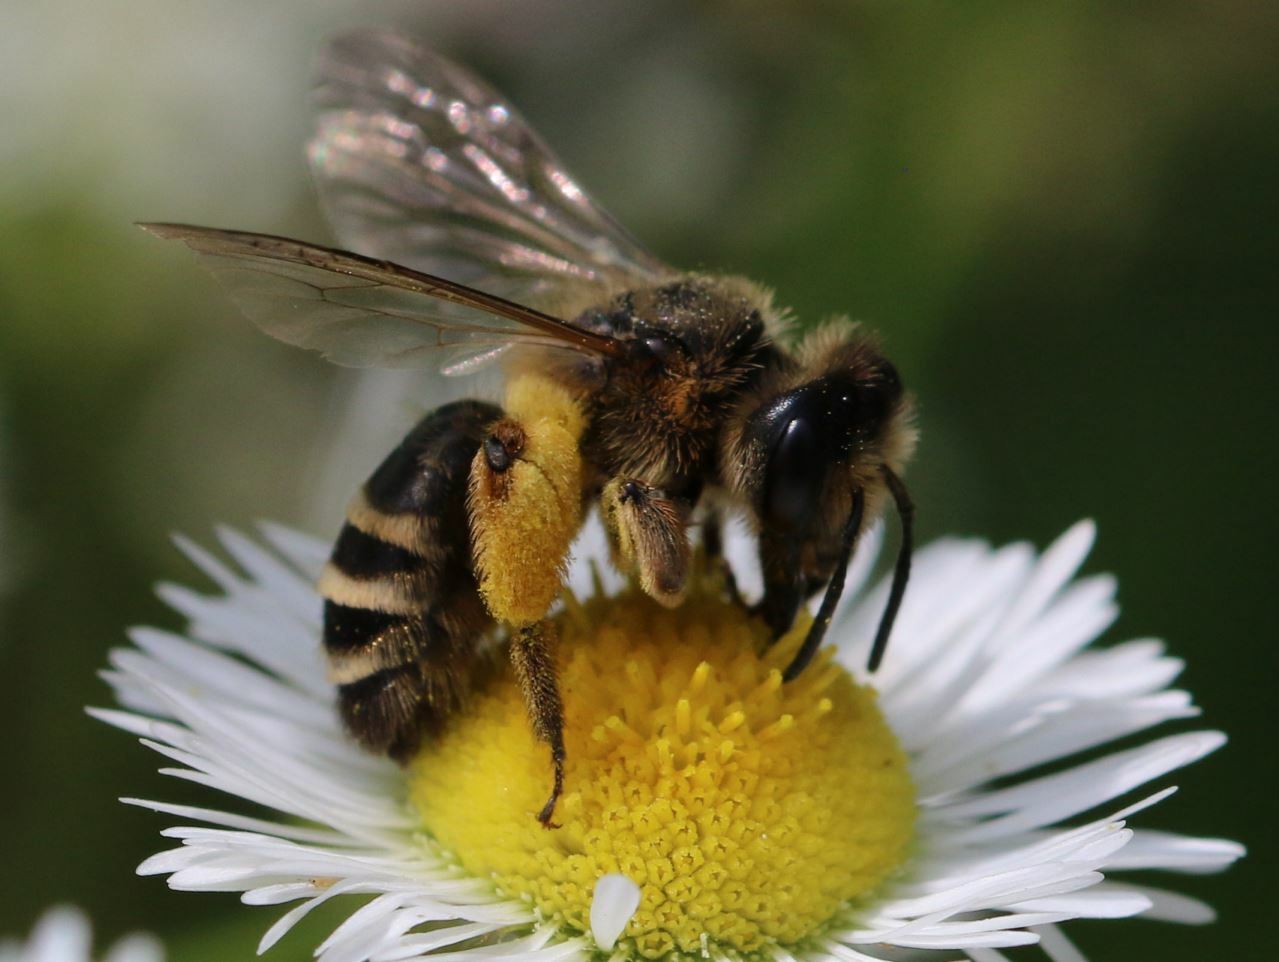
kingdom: Animalia
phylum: Arthropoda
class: Insecta
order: Hymenoptera
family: Andrenidae
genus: Andrena
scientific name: Andrena flavipes
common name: Yellow-legged mining bee
